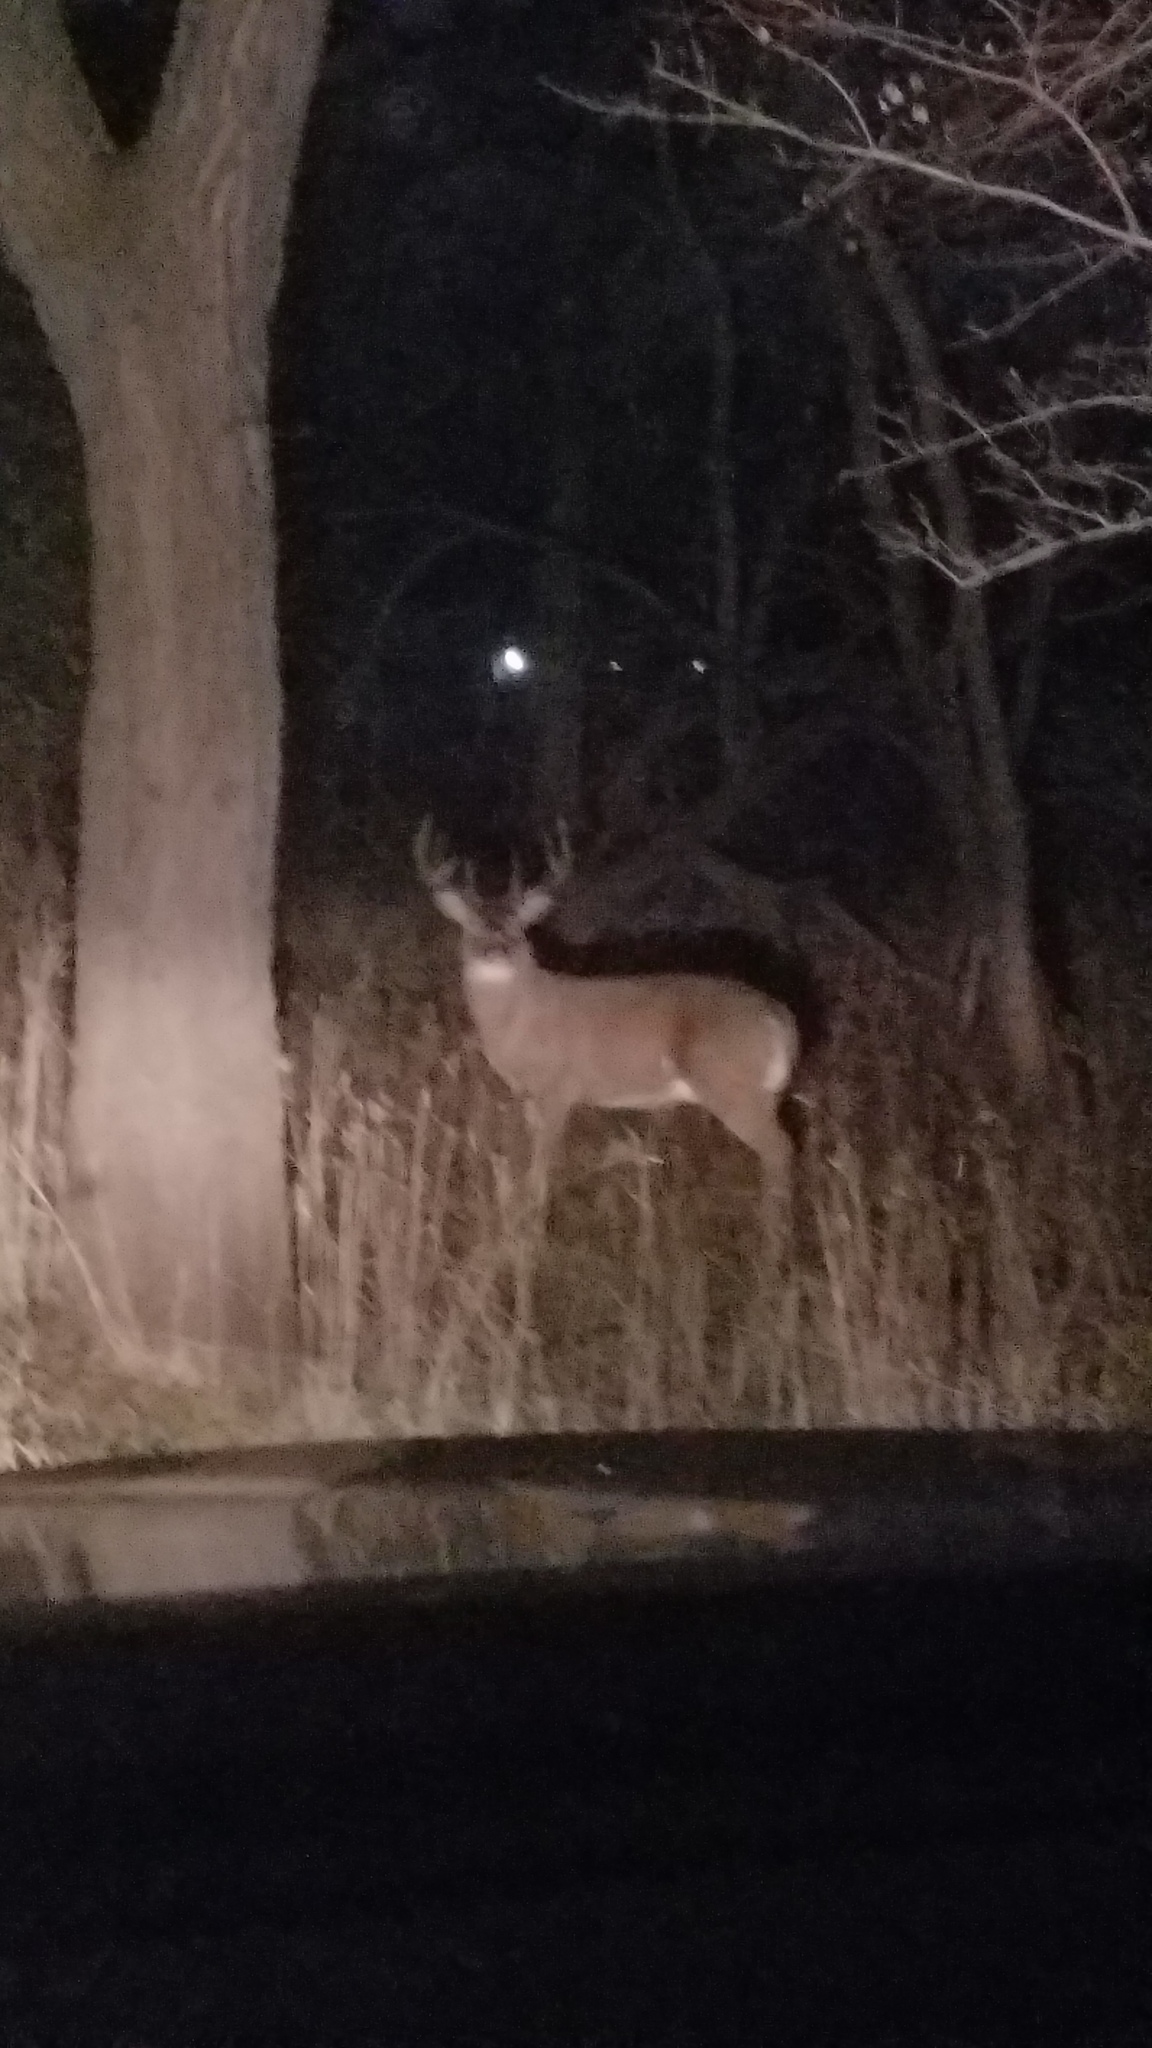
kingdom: Animalia
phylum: Chordata
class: Mammalia
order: Artiodactyla
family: Cervidae
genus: Odocoileus
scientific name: Odocoileus virginianus
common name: White-tailed deer
